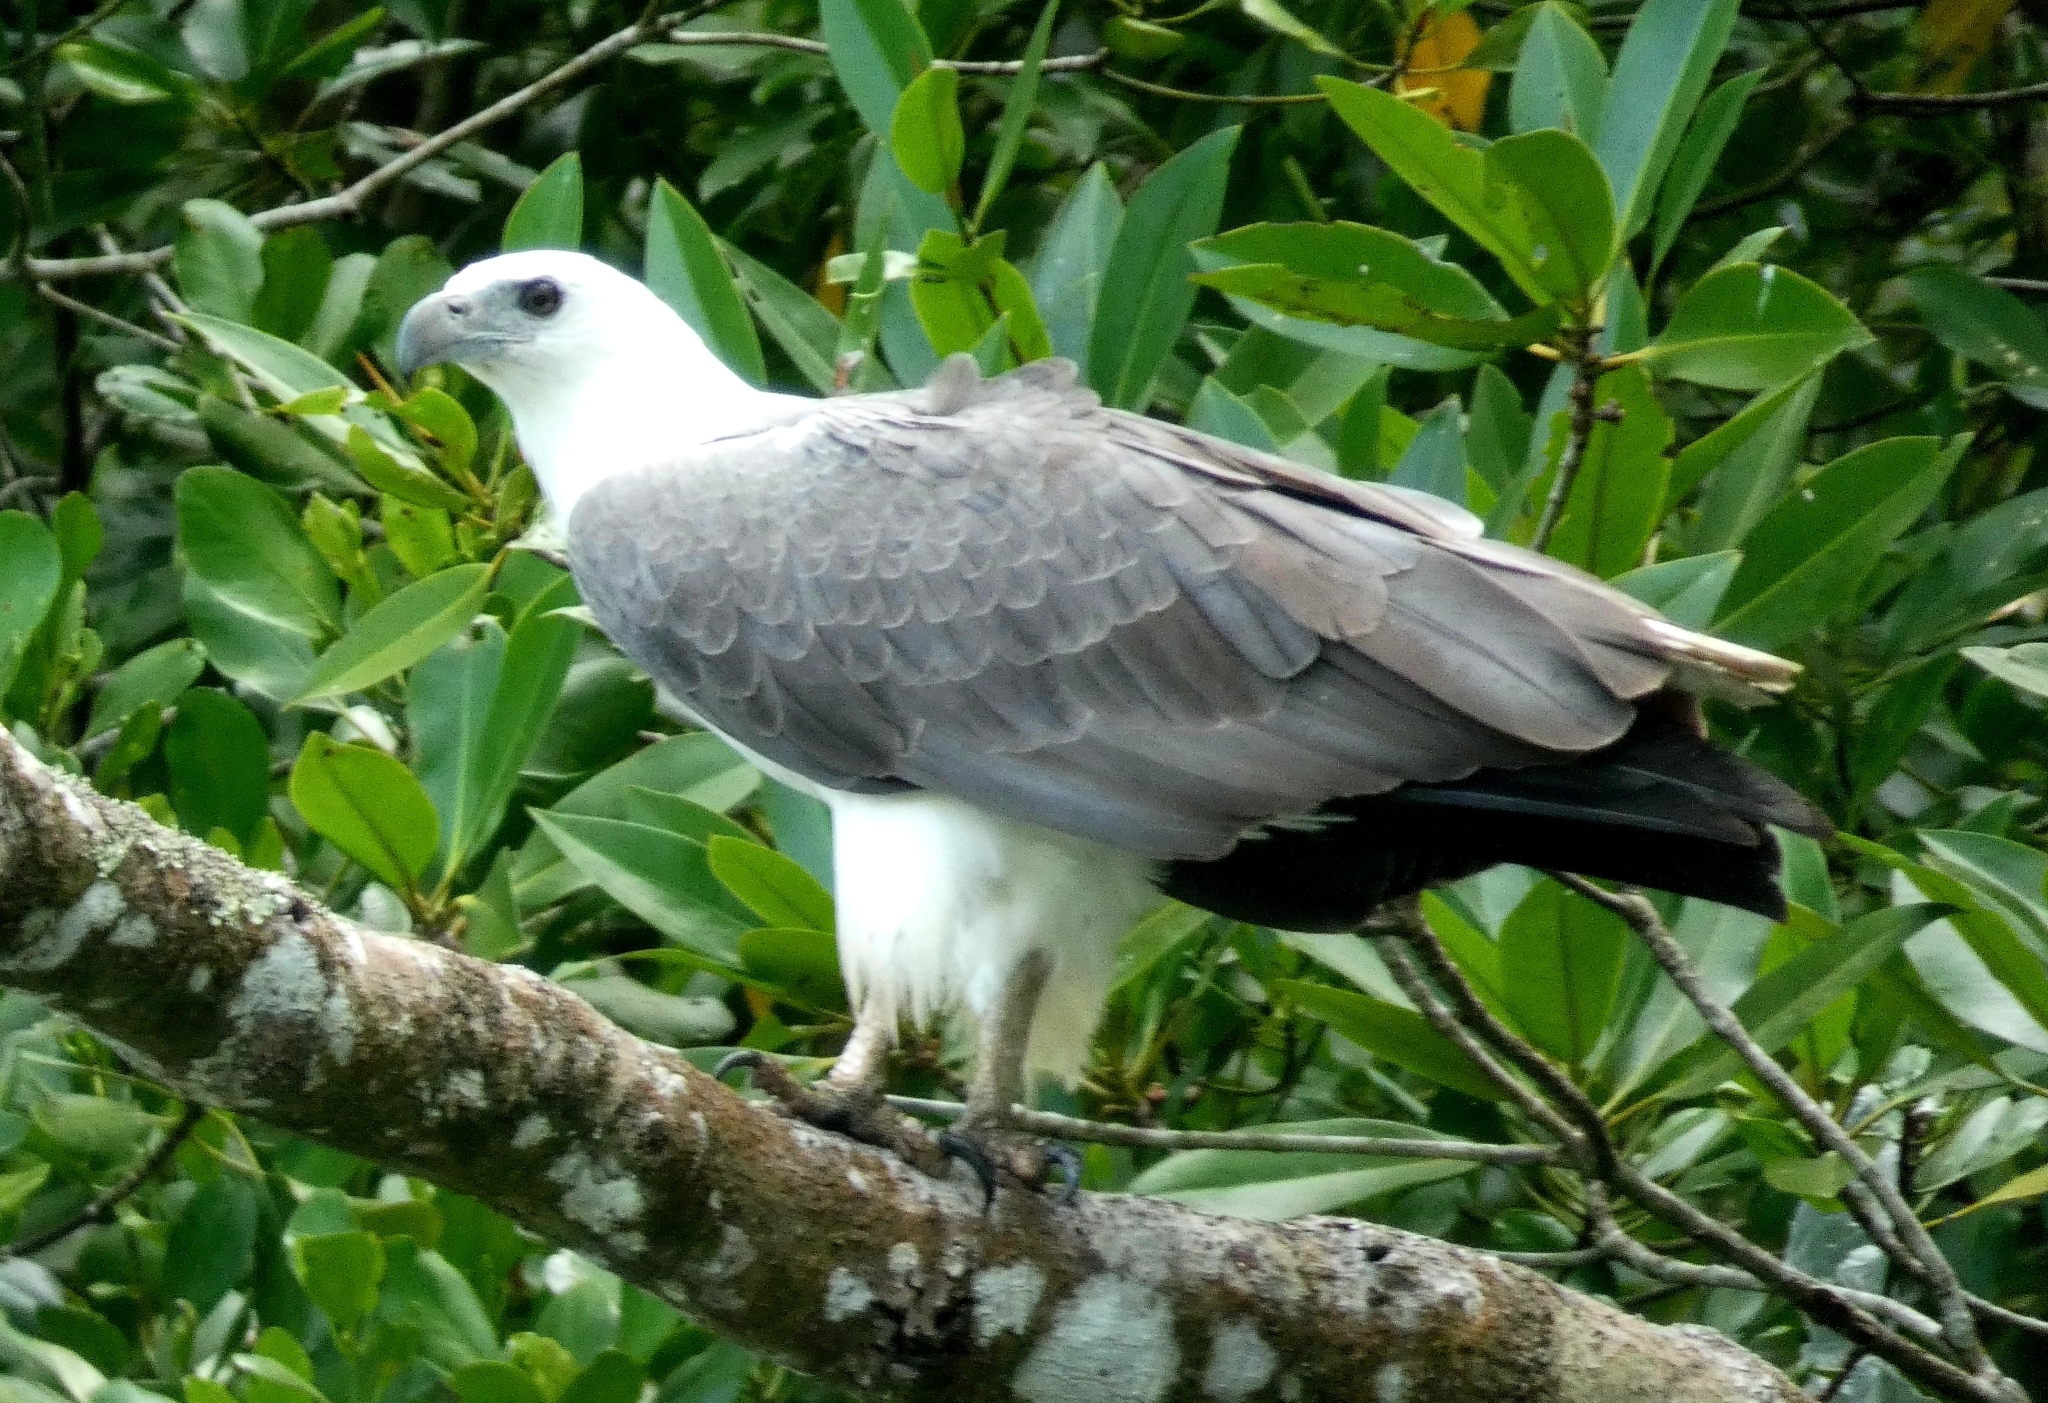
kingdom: Animalia
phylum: Chordata
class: Aves
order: Accipitriformes
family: Accipitridae
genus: Haliaeetus
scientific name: Haliaeetus leucogaster
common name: White-bellied sea eagle
